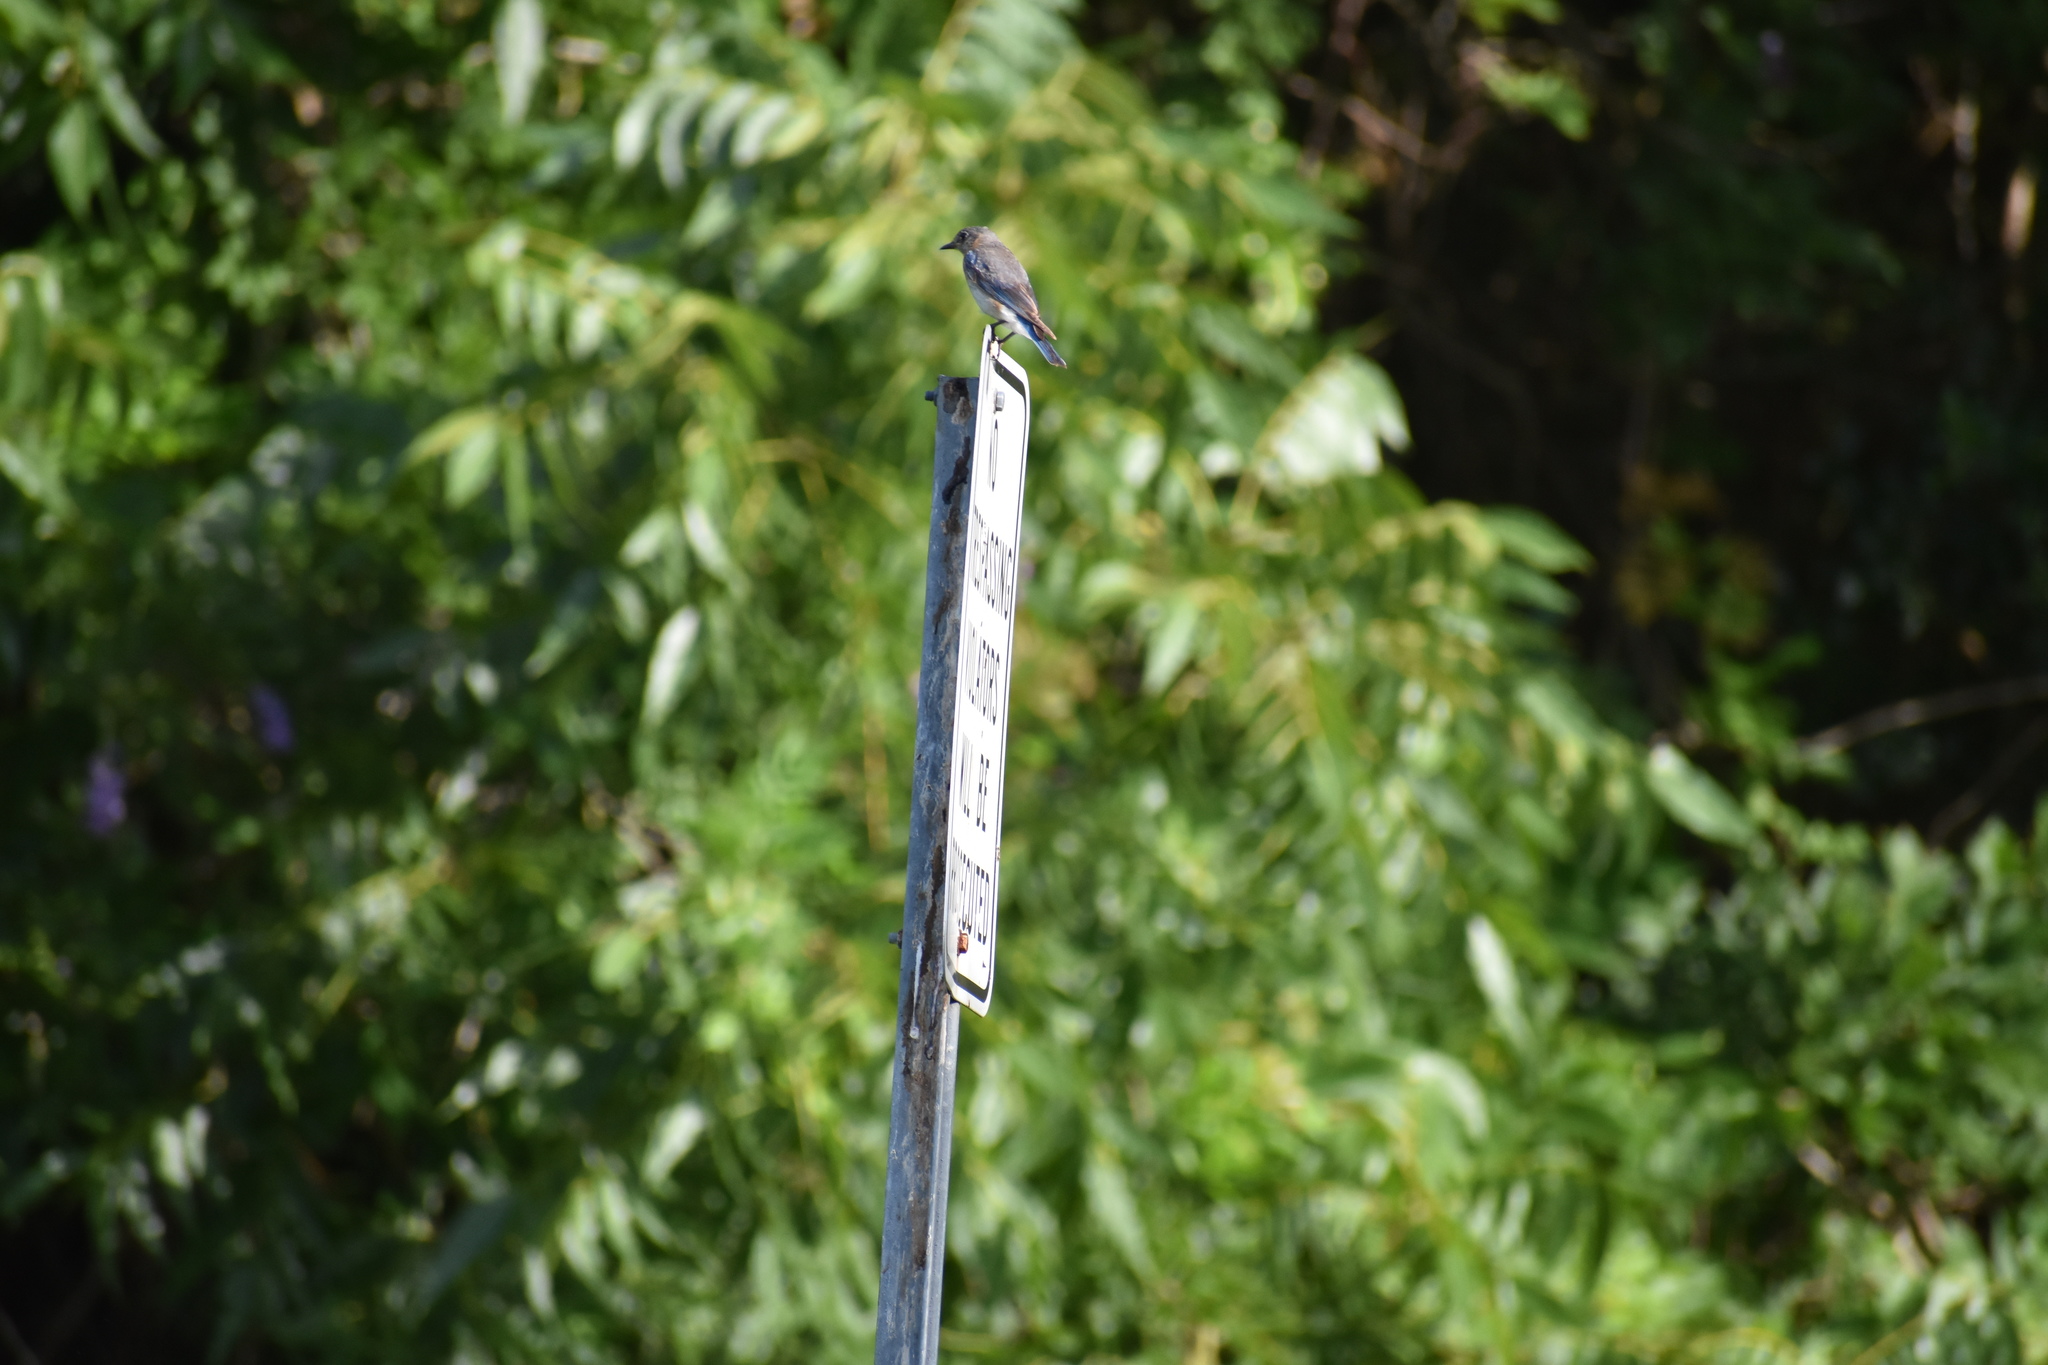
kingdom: Animalia
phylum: Chordata
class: Aves
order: Passeriformes
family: Turdidae
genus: Sialia
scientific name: Sialia sialis
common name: Eastern bluebird
